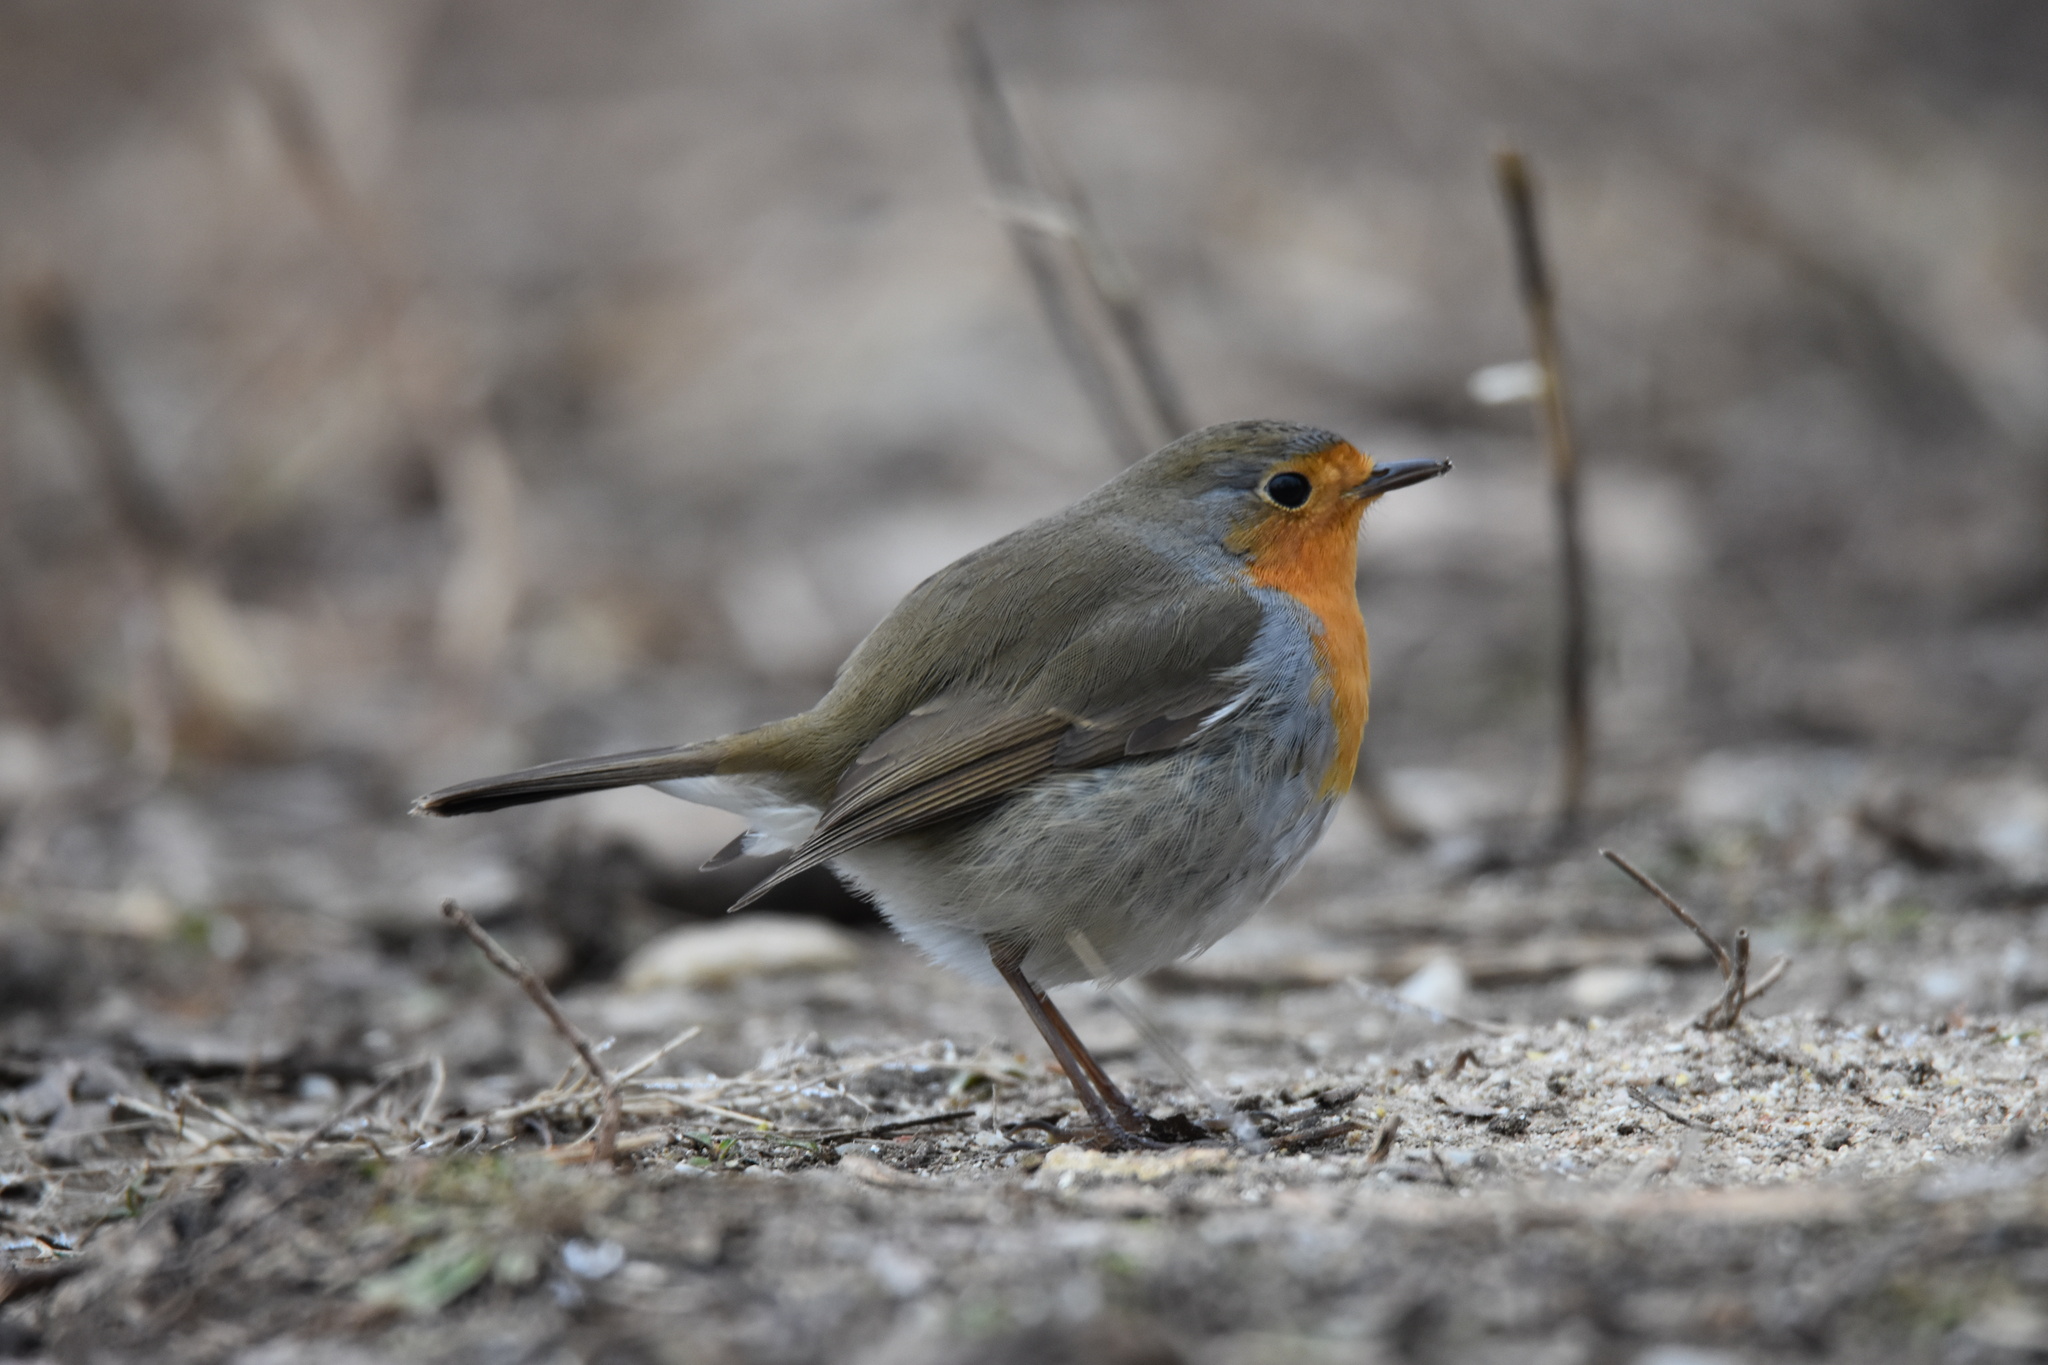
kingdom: Animalia
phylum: Chordata
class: Aves
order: Passeriformes
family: Muscicapidae
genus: Erithacus
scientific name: Erithacus rubecula
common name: European robin
